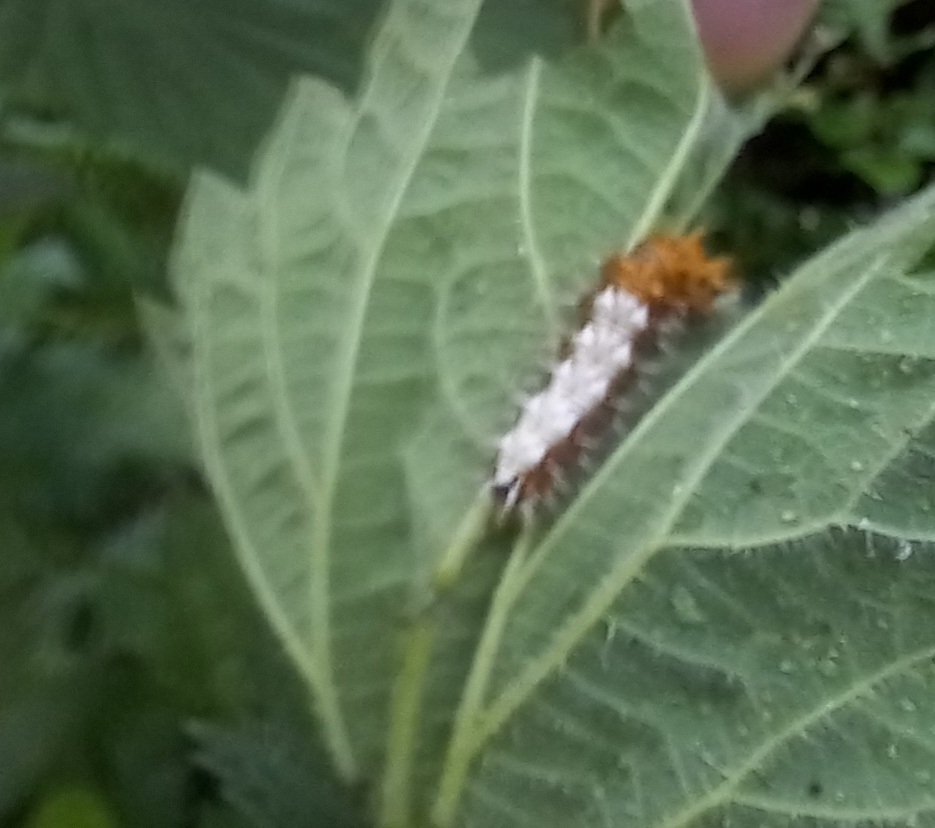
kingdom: Animalia
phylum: Arthropoda
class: Insecta
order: Lepidoptera
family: Nymphalidae
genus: Polygonia
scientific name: Polygonia c-album
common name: Comma
